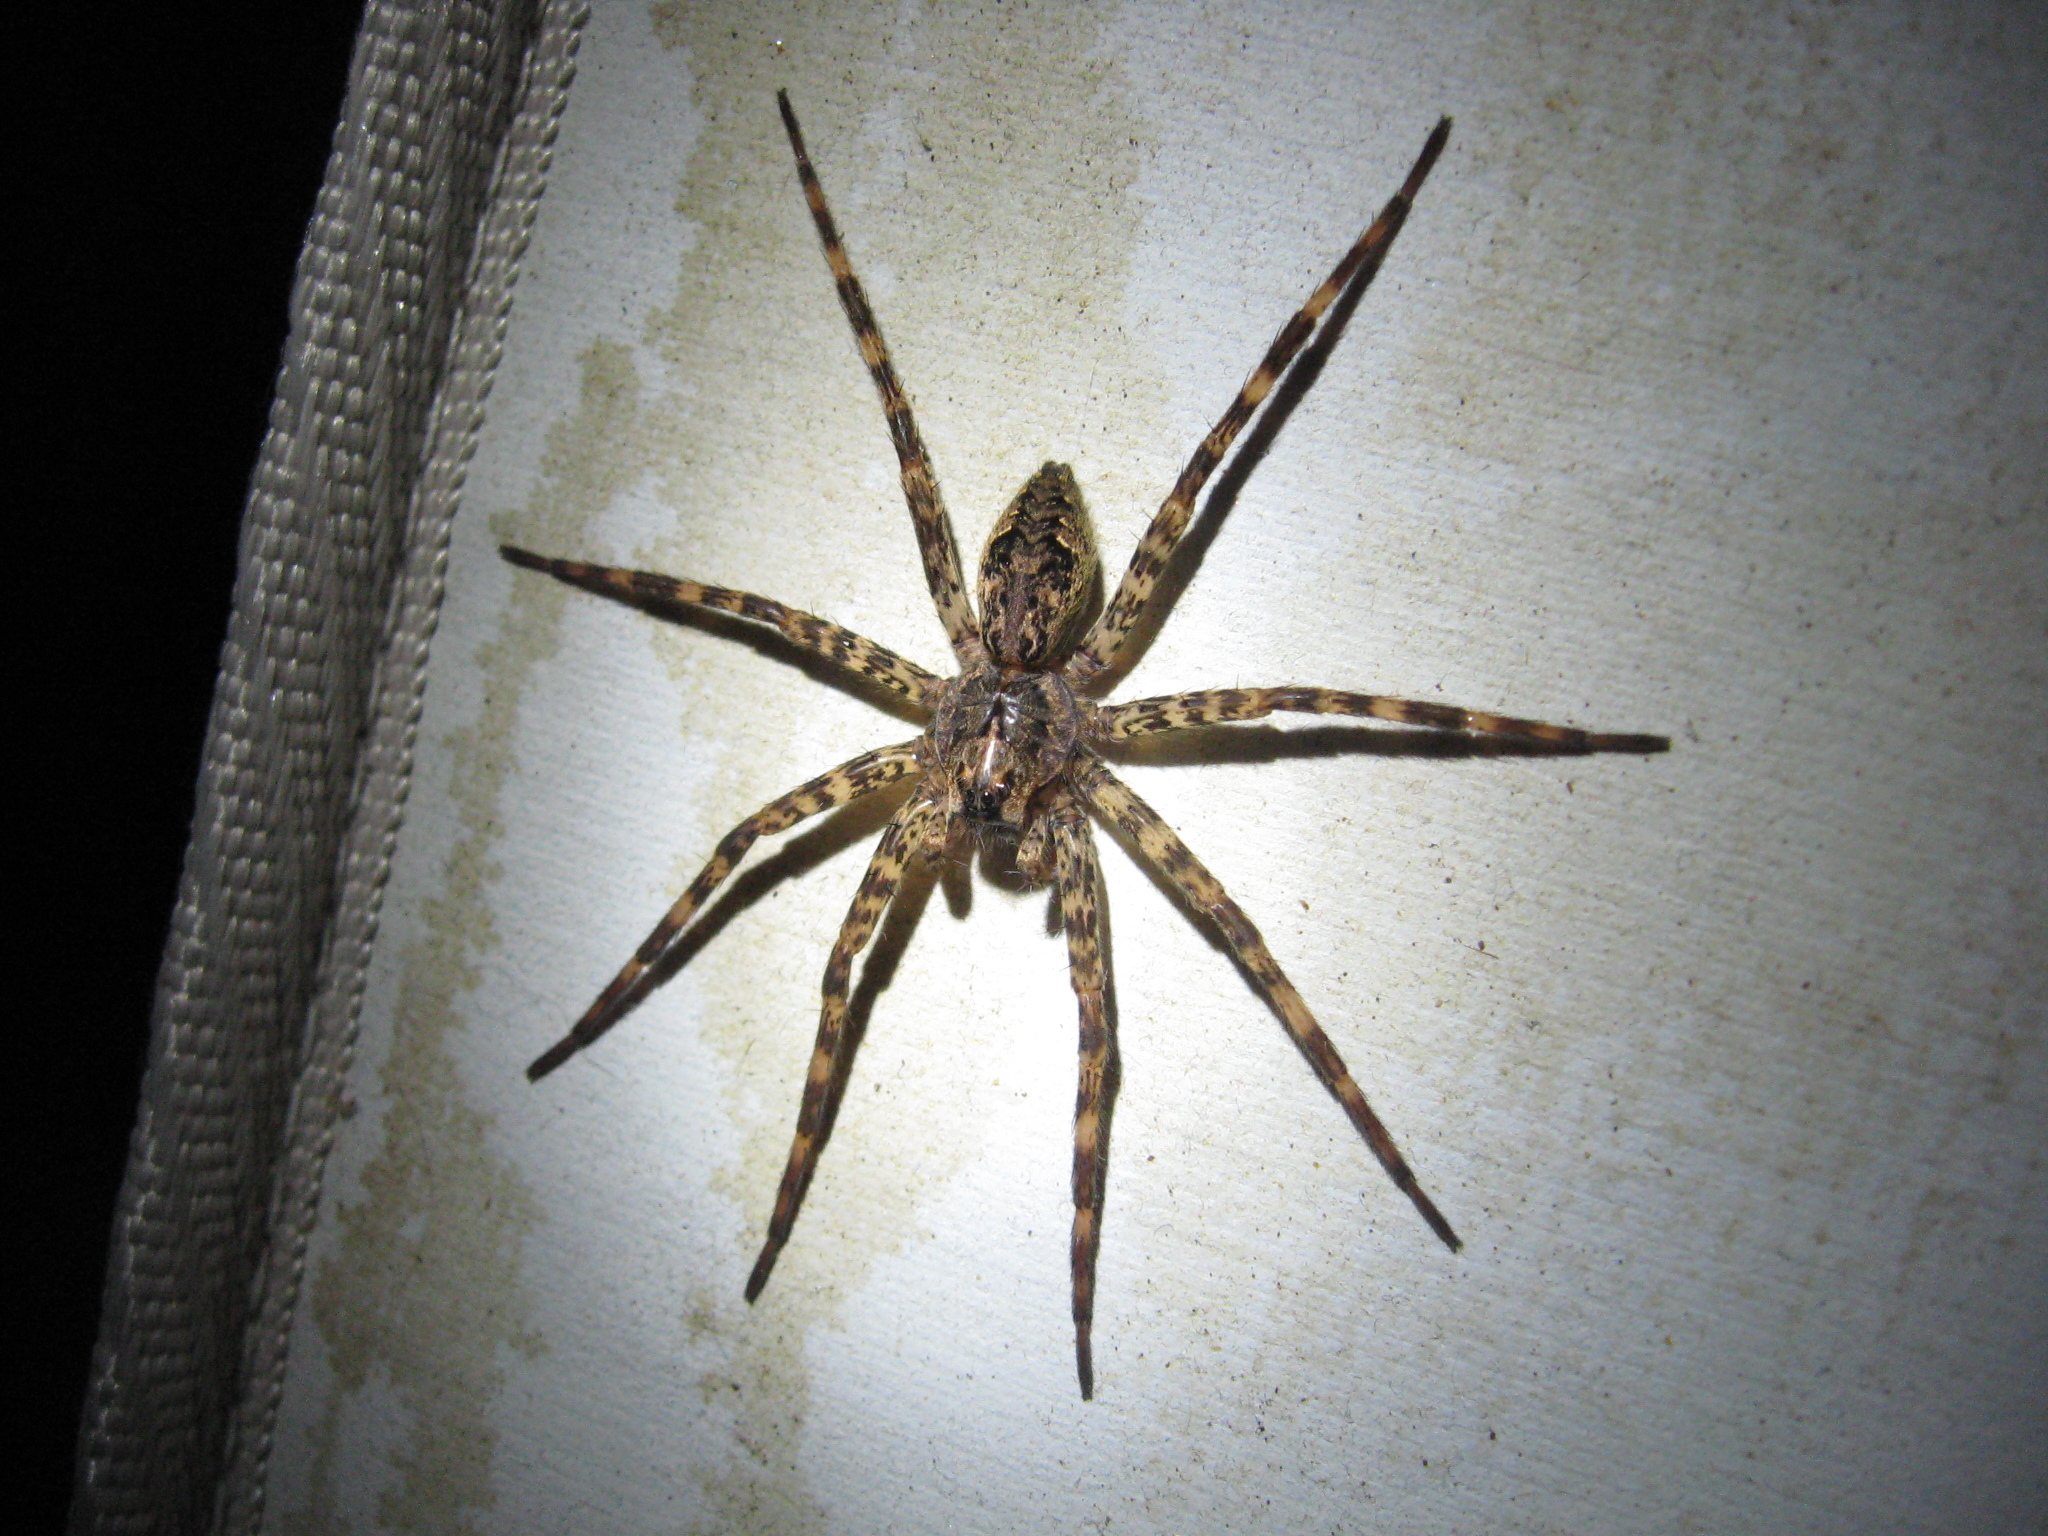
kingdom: Animalia
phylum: Arthropoda
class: Arachnida
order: Araneae
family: Pisauridae
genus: Dolomedes
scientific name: Dolomedes tenebrosus
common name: Dark fishing spider
